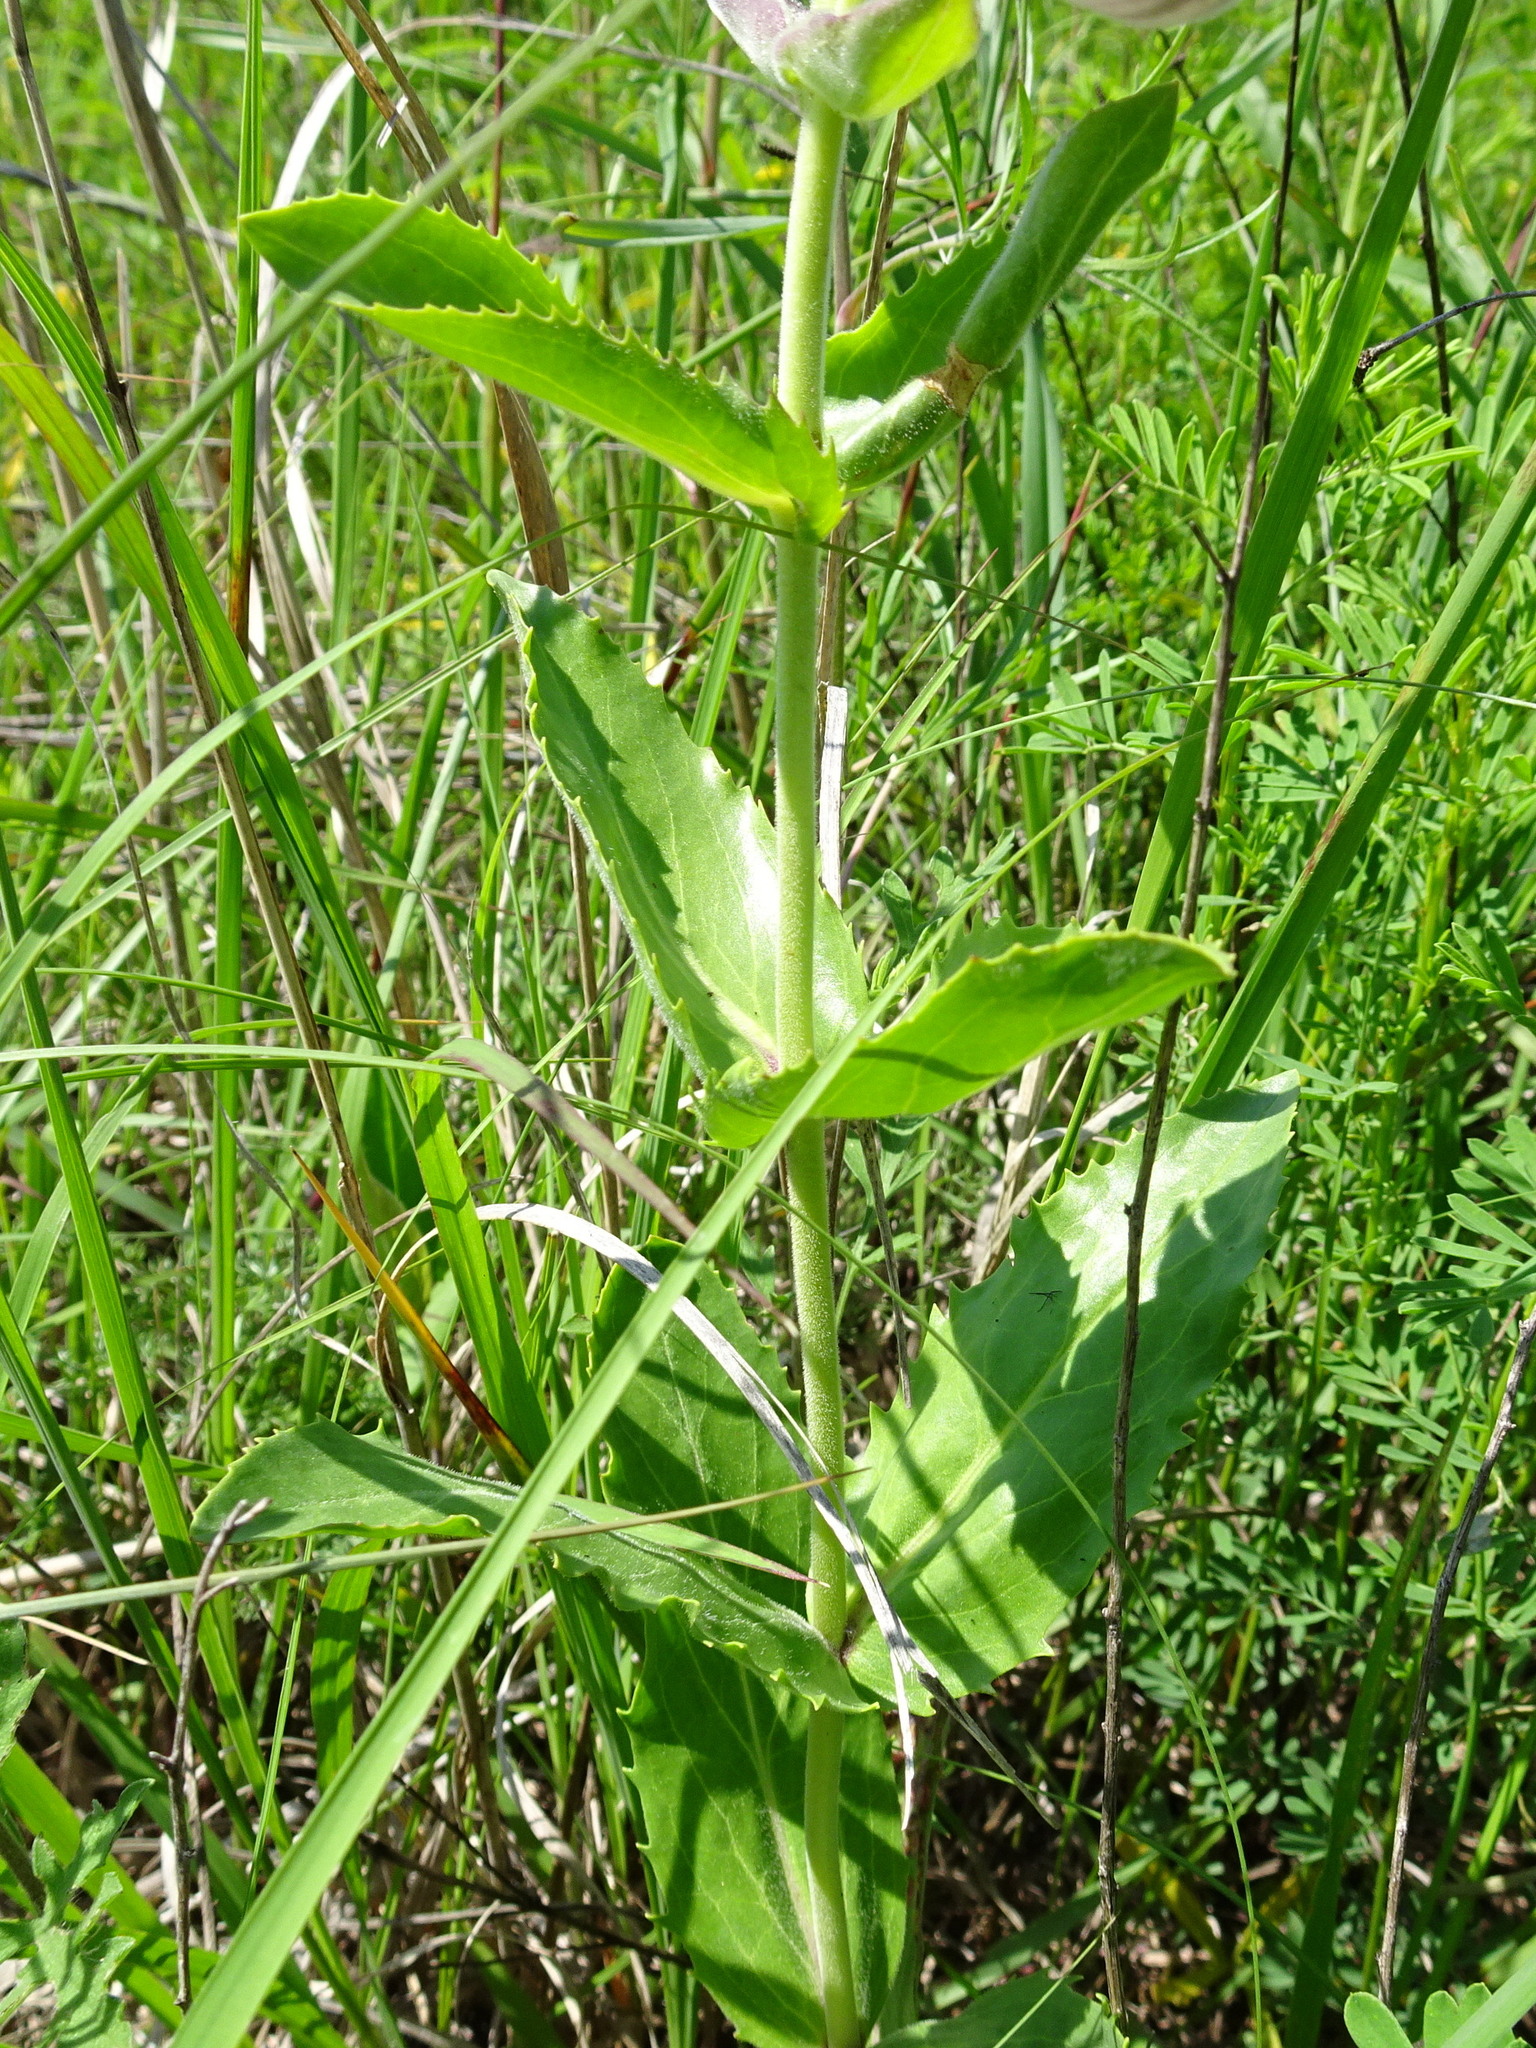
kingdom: Plantae
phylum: Tracheophyta
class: Magnoliopsida
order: Lamiales
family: Plantaginaceae
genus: Penstemon
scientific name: Penstemon cobaea
